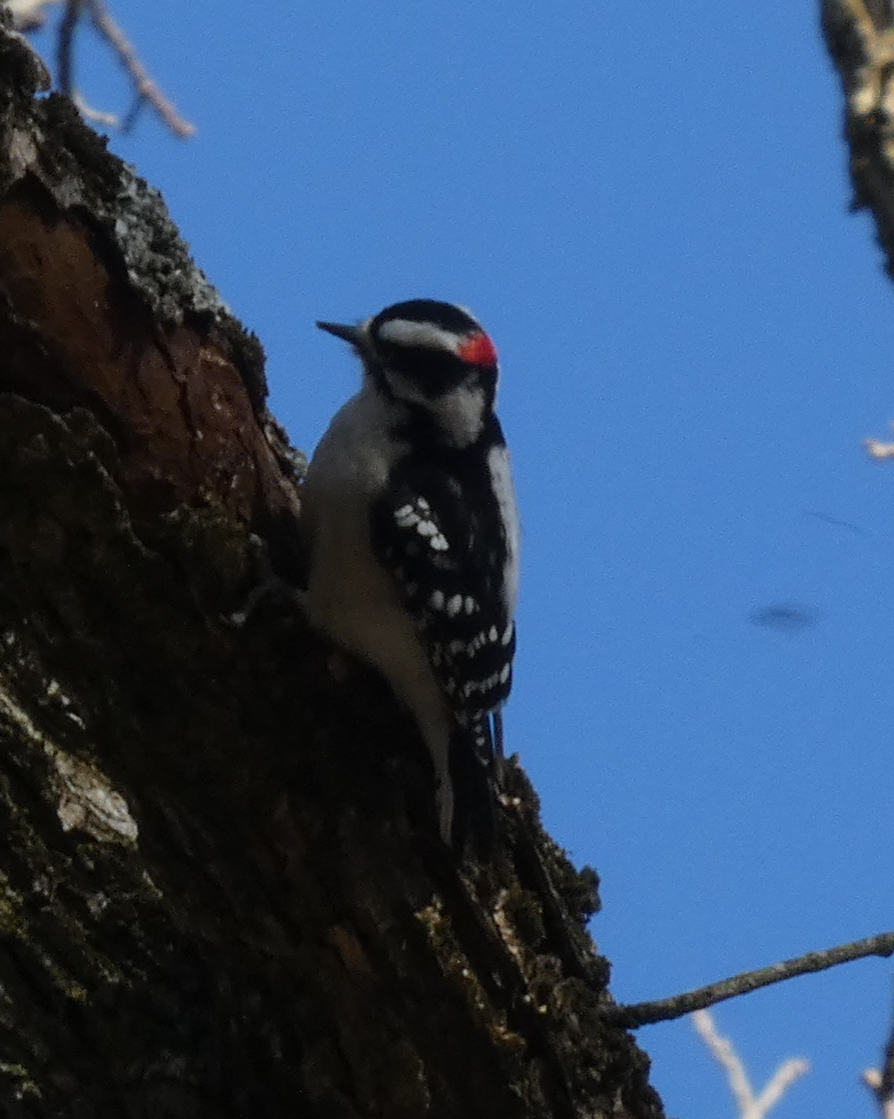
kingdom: Animalia
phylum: Chordata
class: Aves
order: Piciformes
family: Picidae
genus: Dryobates
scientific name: Dryobates pubescens
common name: Downy woodpecker
